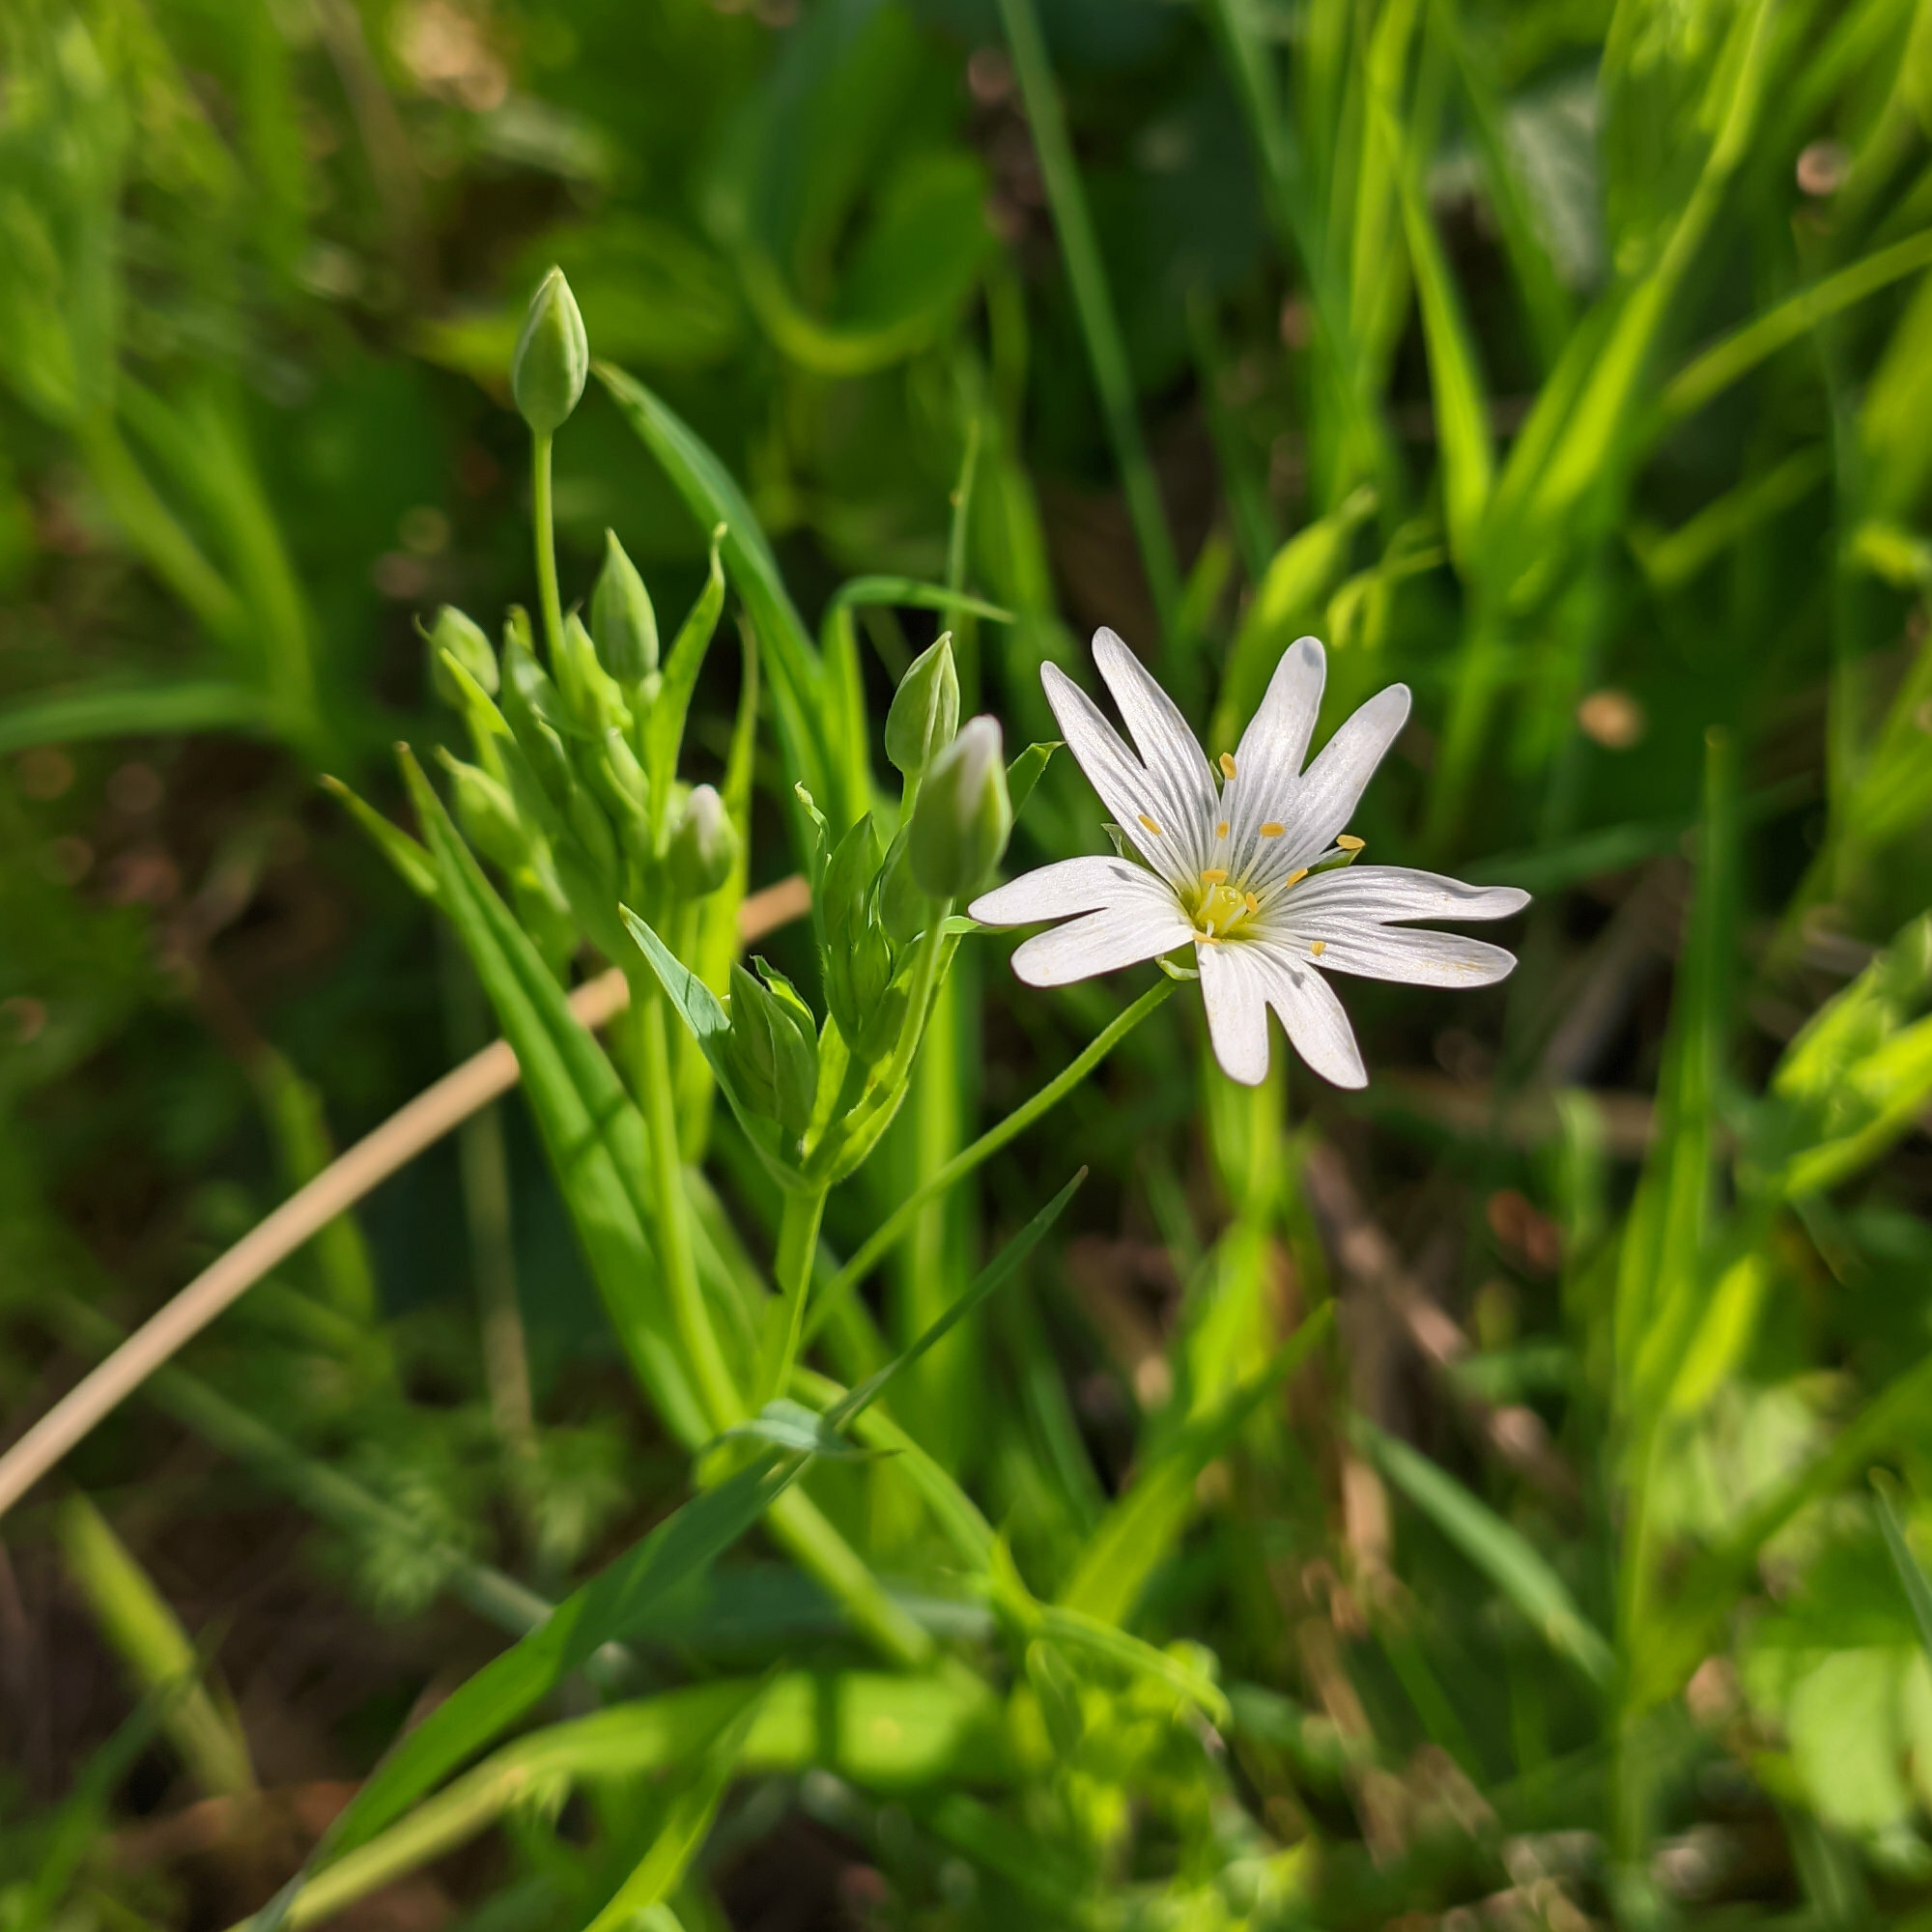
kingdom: Plantae
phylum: Tracheophyta
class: Magnoliopsida
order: Caryophyllales
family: Caryophyllaceae
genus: Rabelera
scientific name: Rabelera holostea
